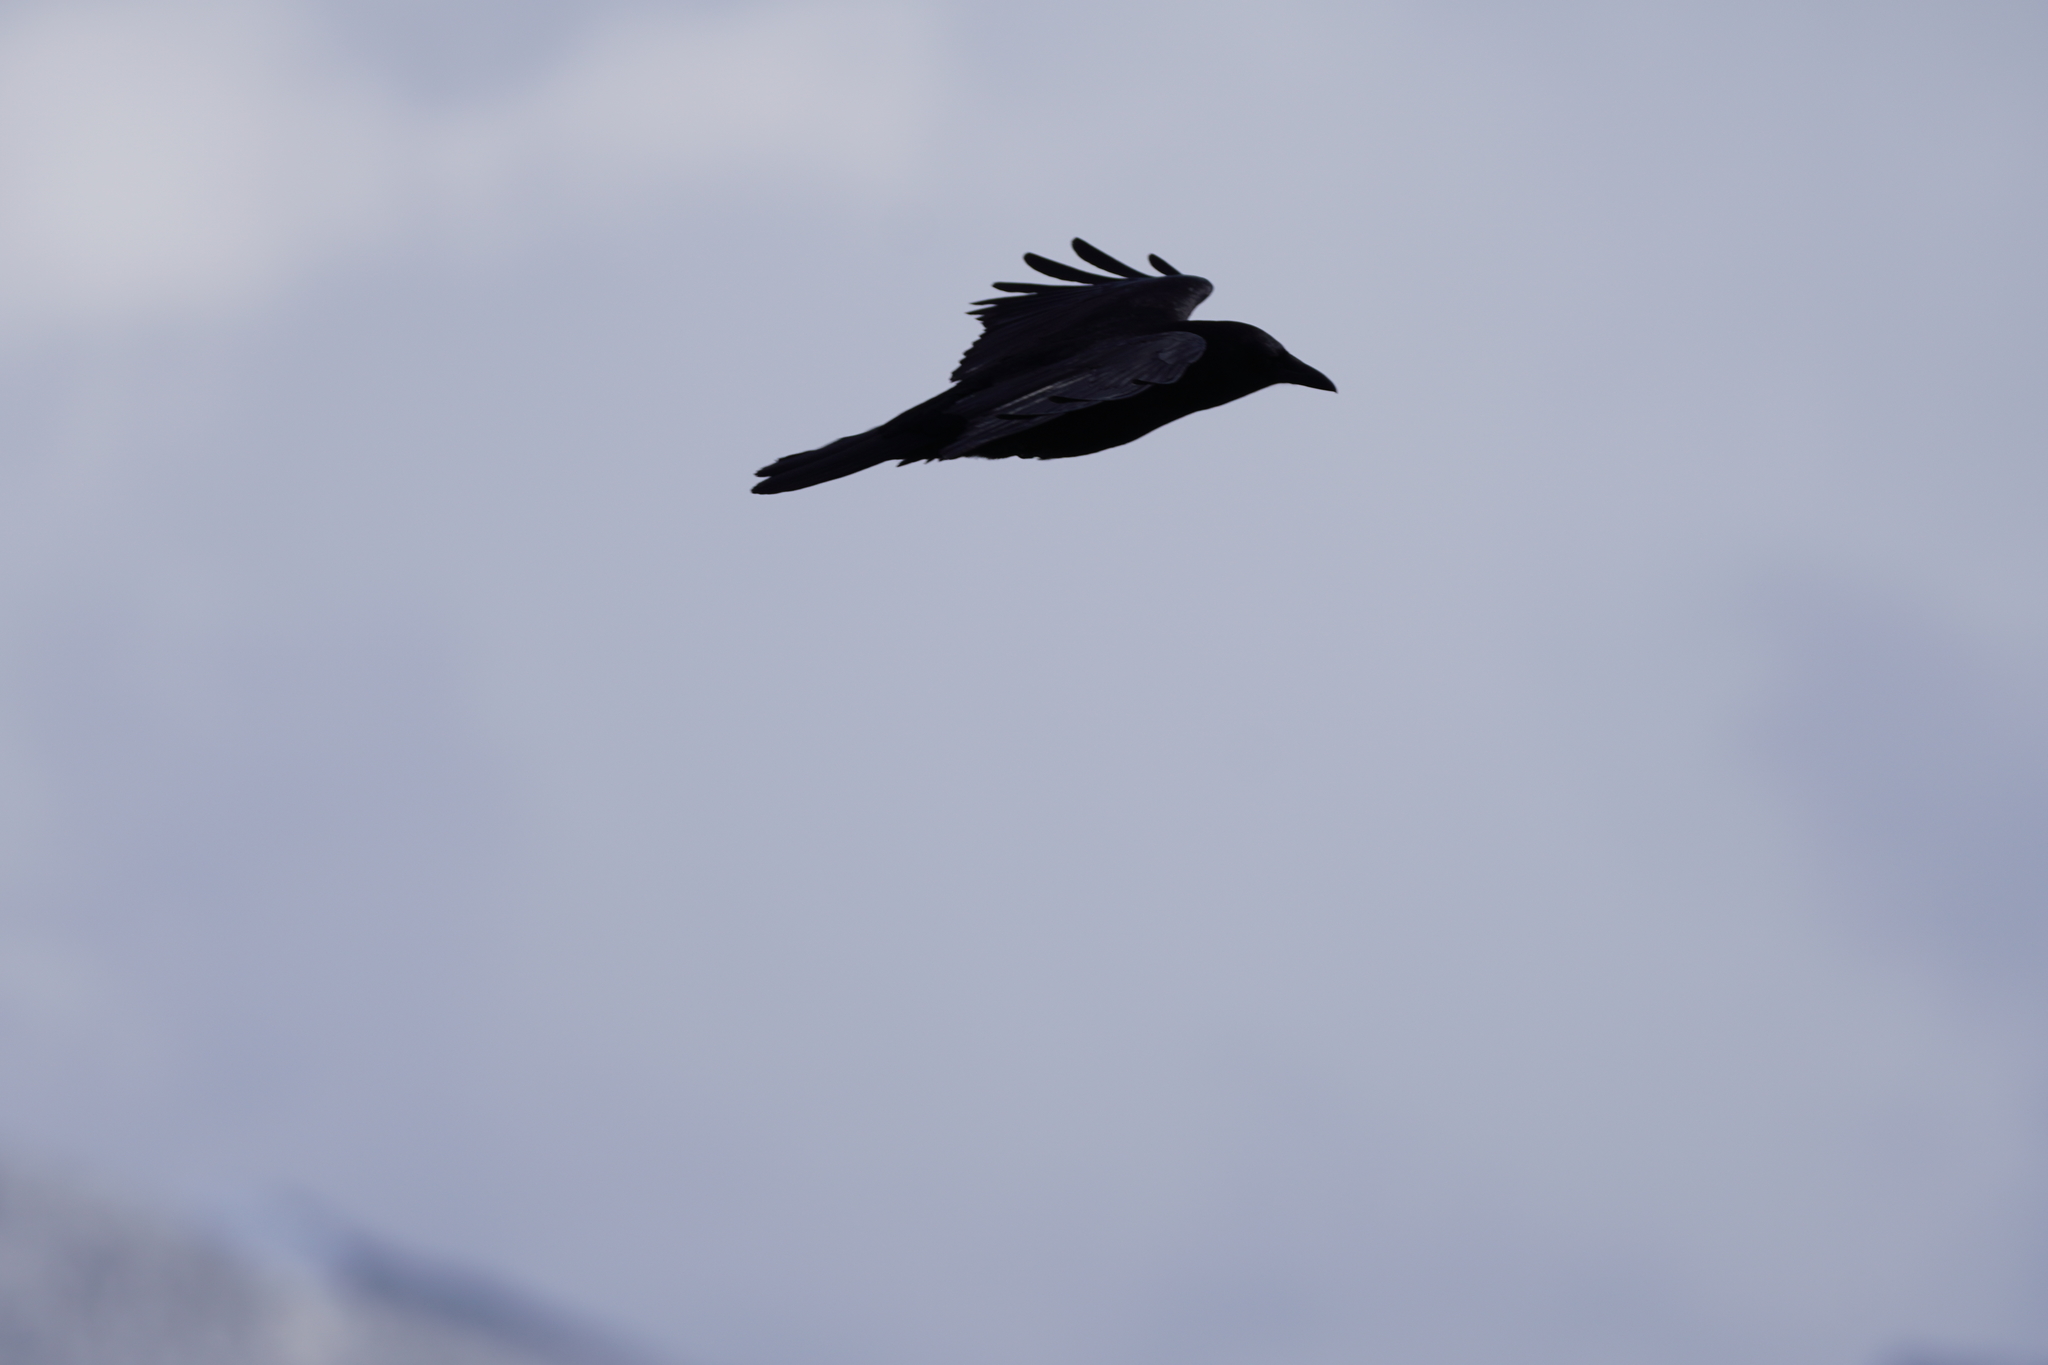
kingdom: Animalia
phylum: Chordata
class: Aves
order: Passeriformes
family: Corvidae
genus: Corvus
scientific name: Corvus brachyrhynchos
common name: American crow
